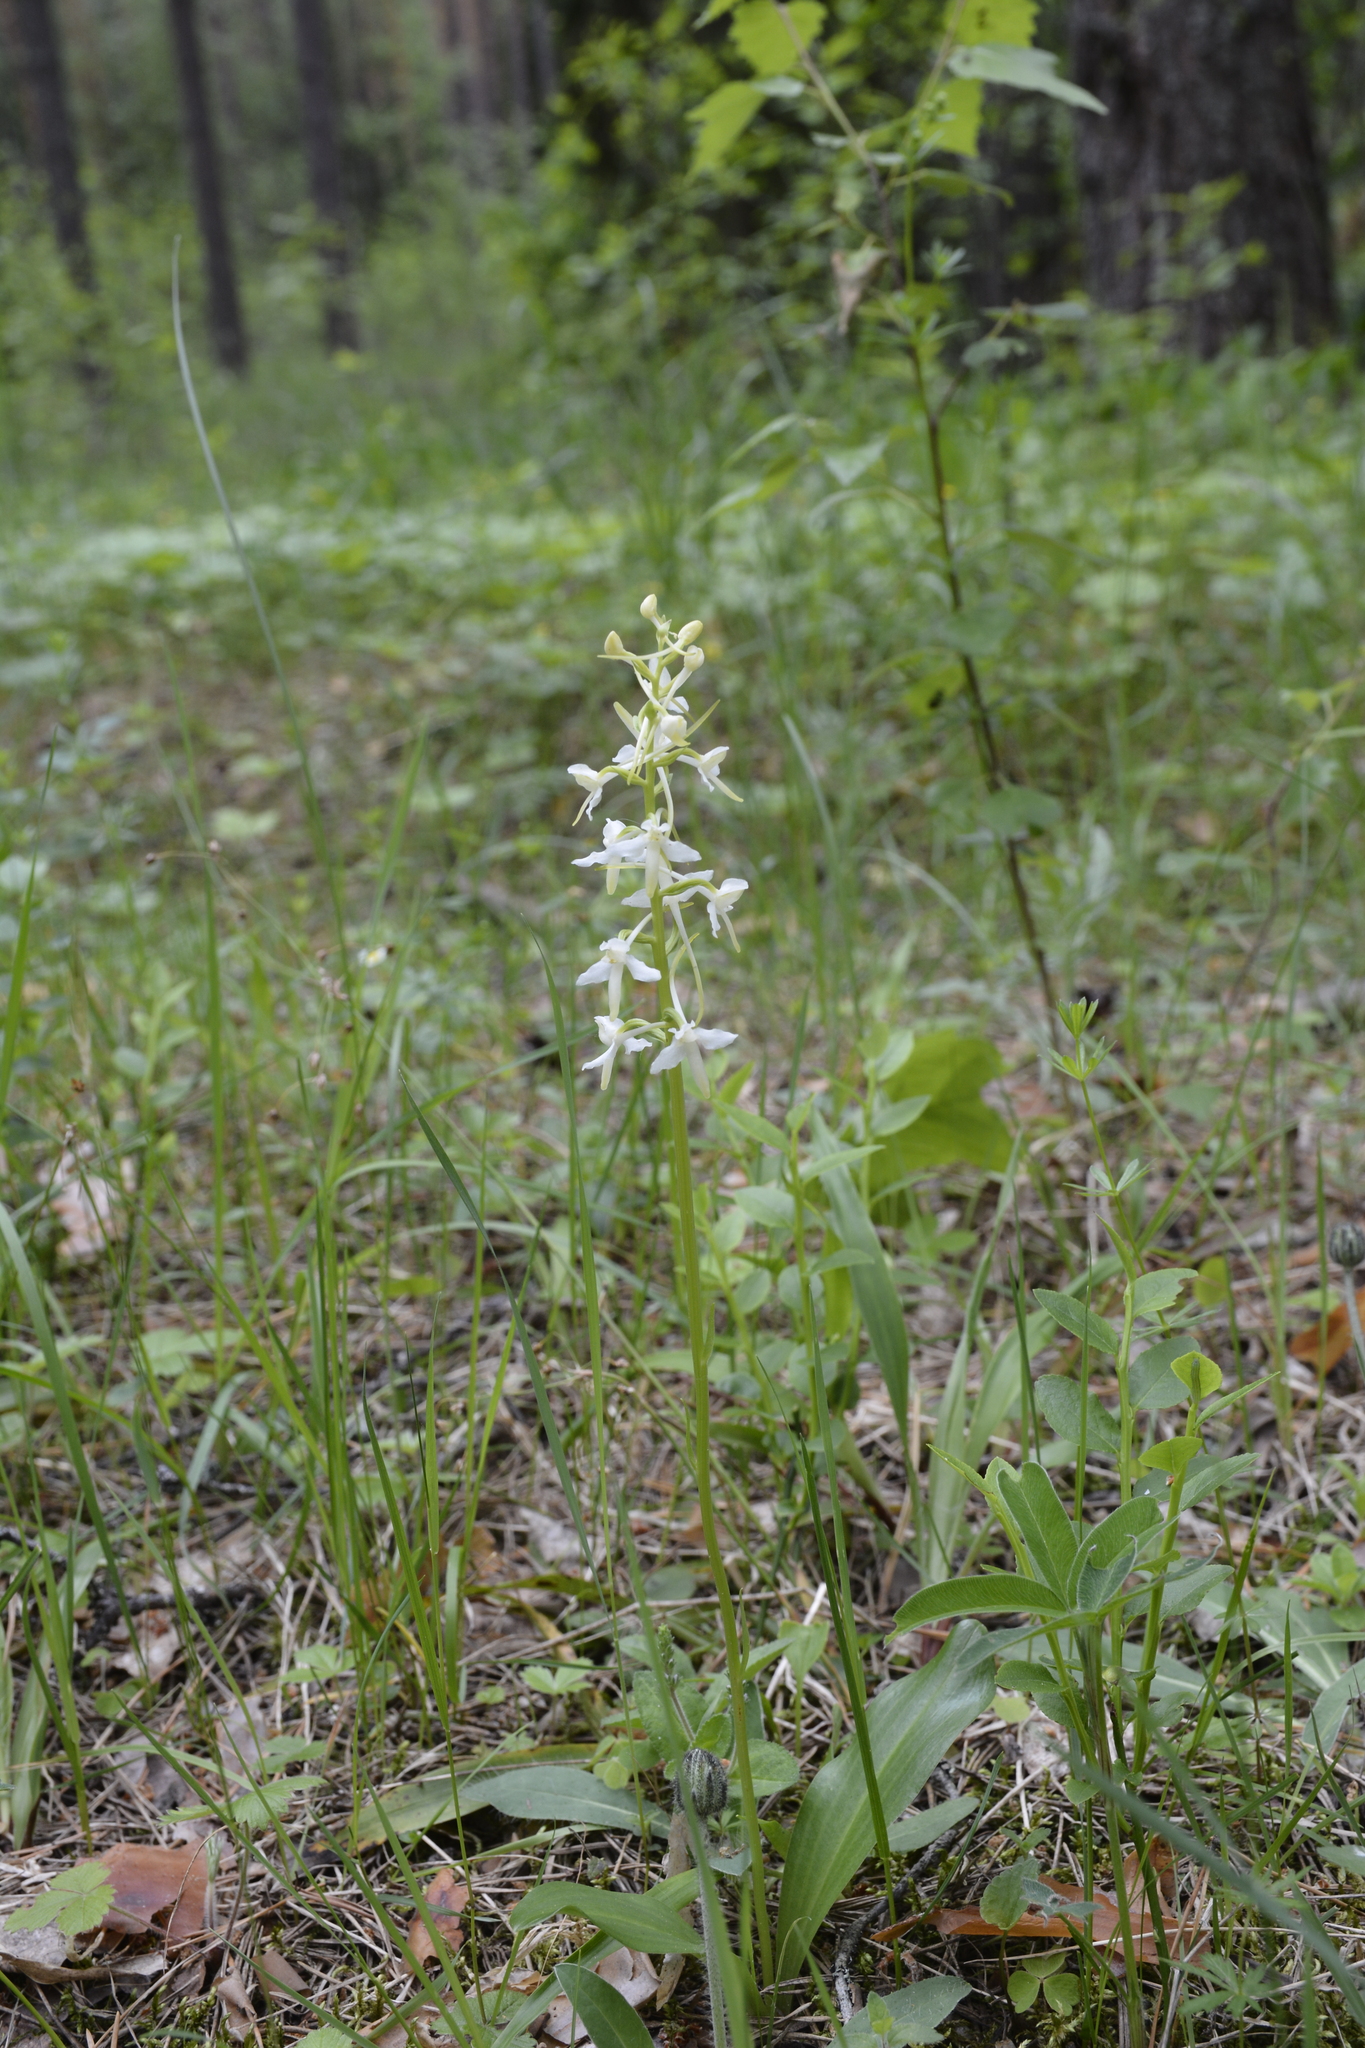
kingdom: Plantae
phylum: Tracheophyta
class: Liliopsida
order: Asparagales
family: Orchidaceae
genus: Platanthera
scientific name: Platanthera bifolia
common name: Lesser butterfly-orchid
